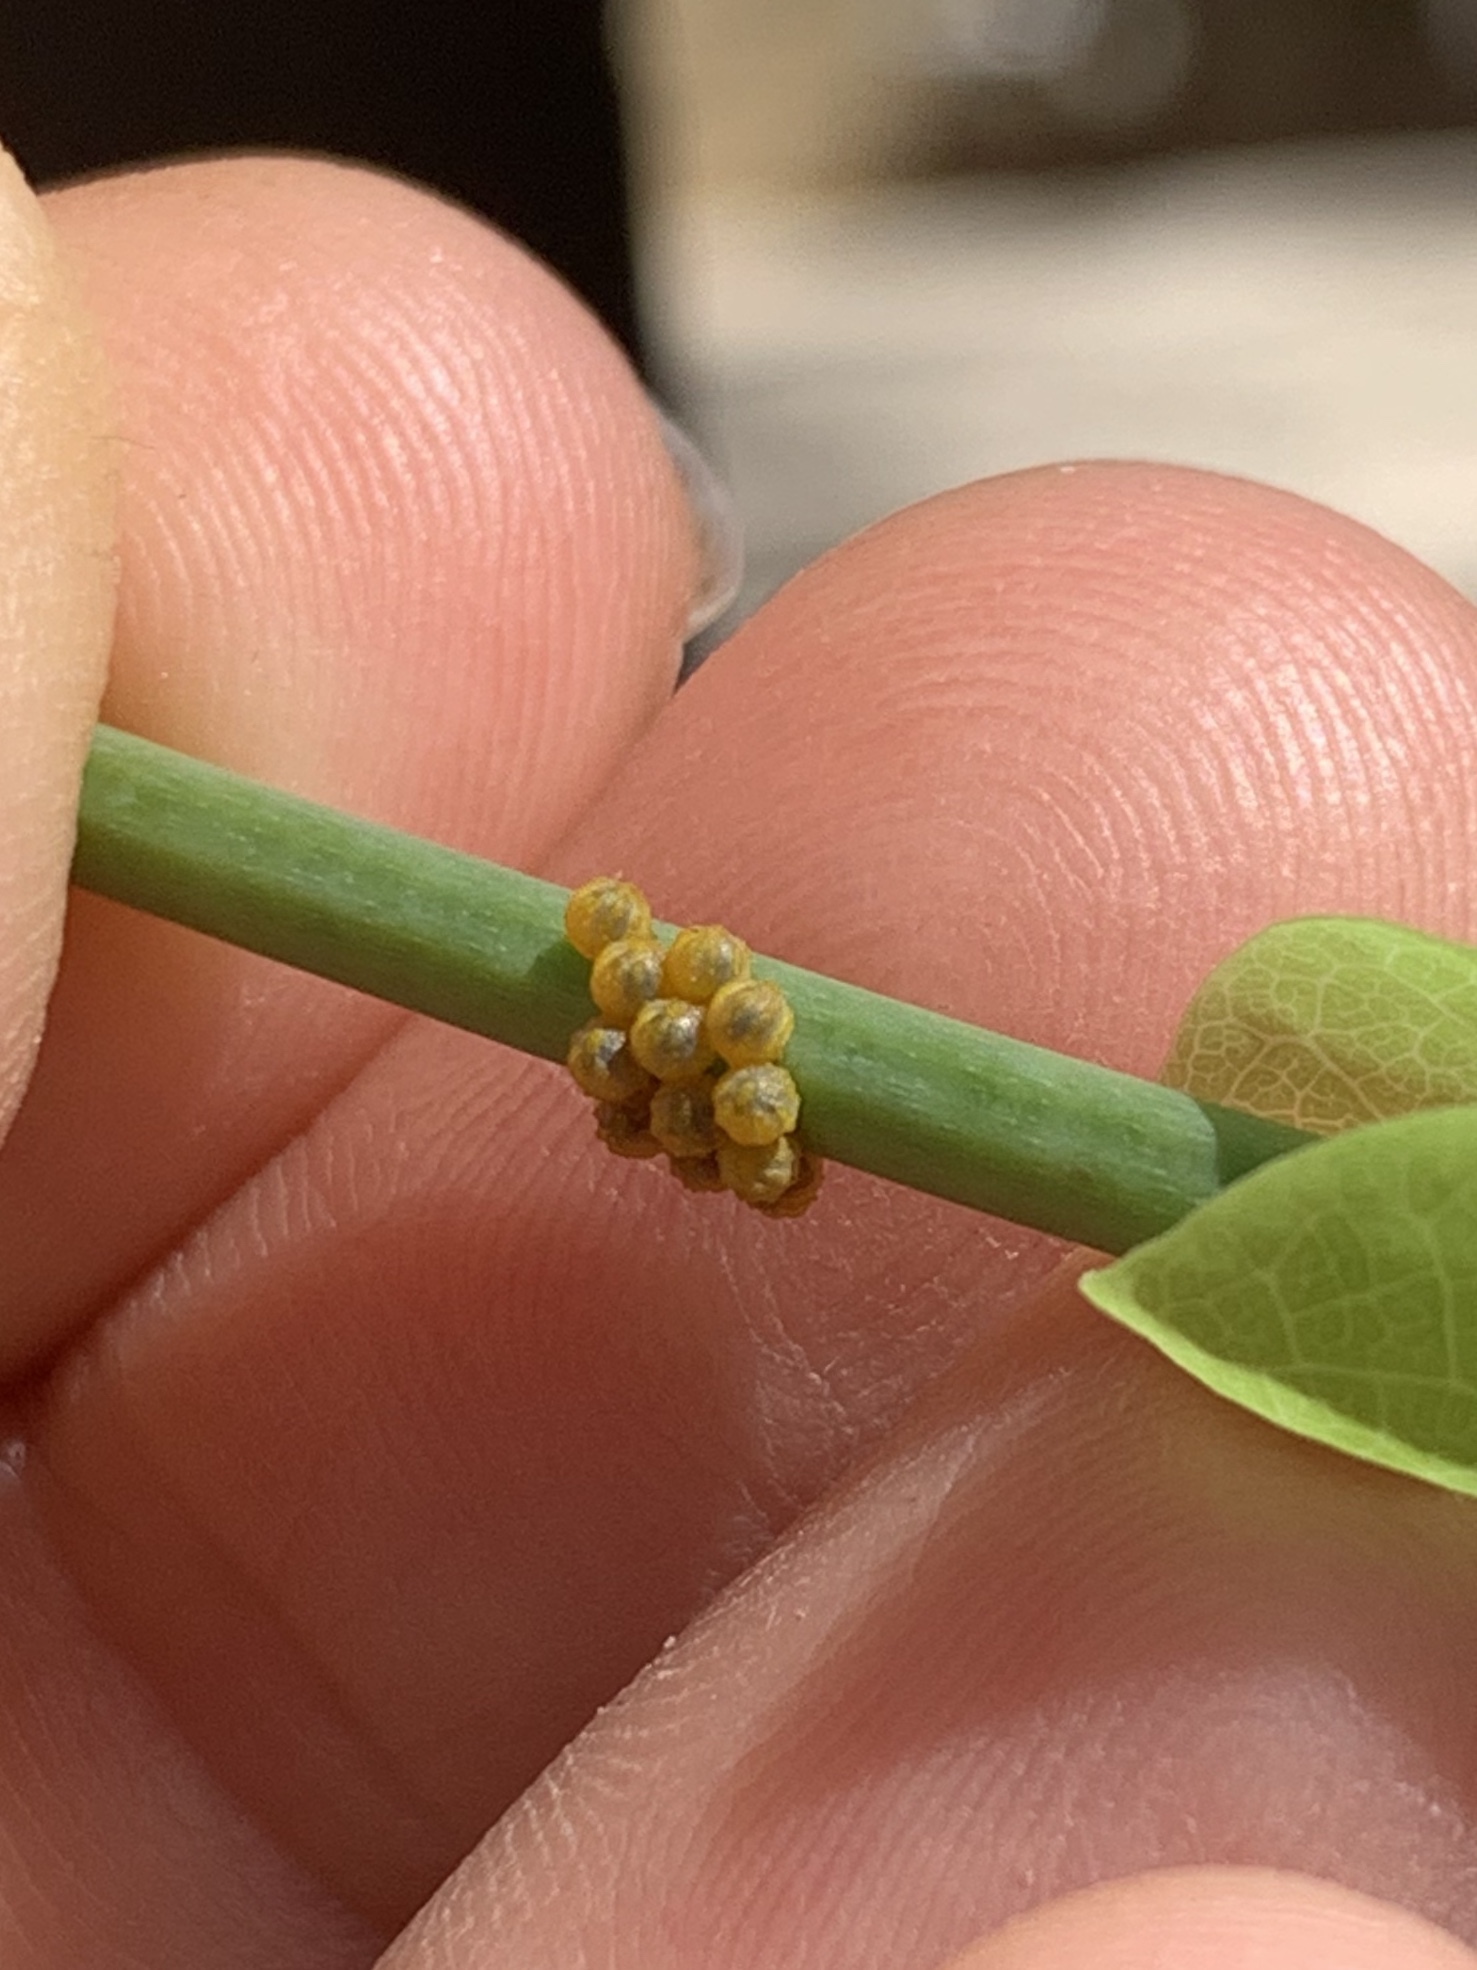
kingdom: Animalia
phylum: Arthropoda
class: Insecta
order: Lepidoptera
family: Papilionidae
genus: Battus
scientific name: Battus polydamas
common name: Polydamas swallowtail
